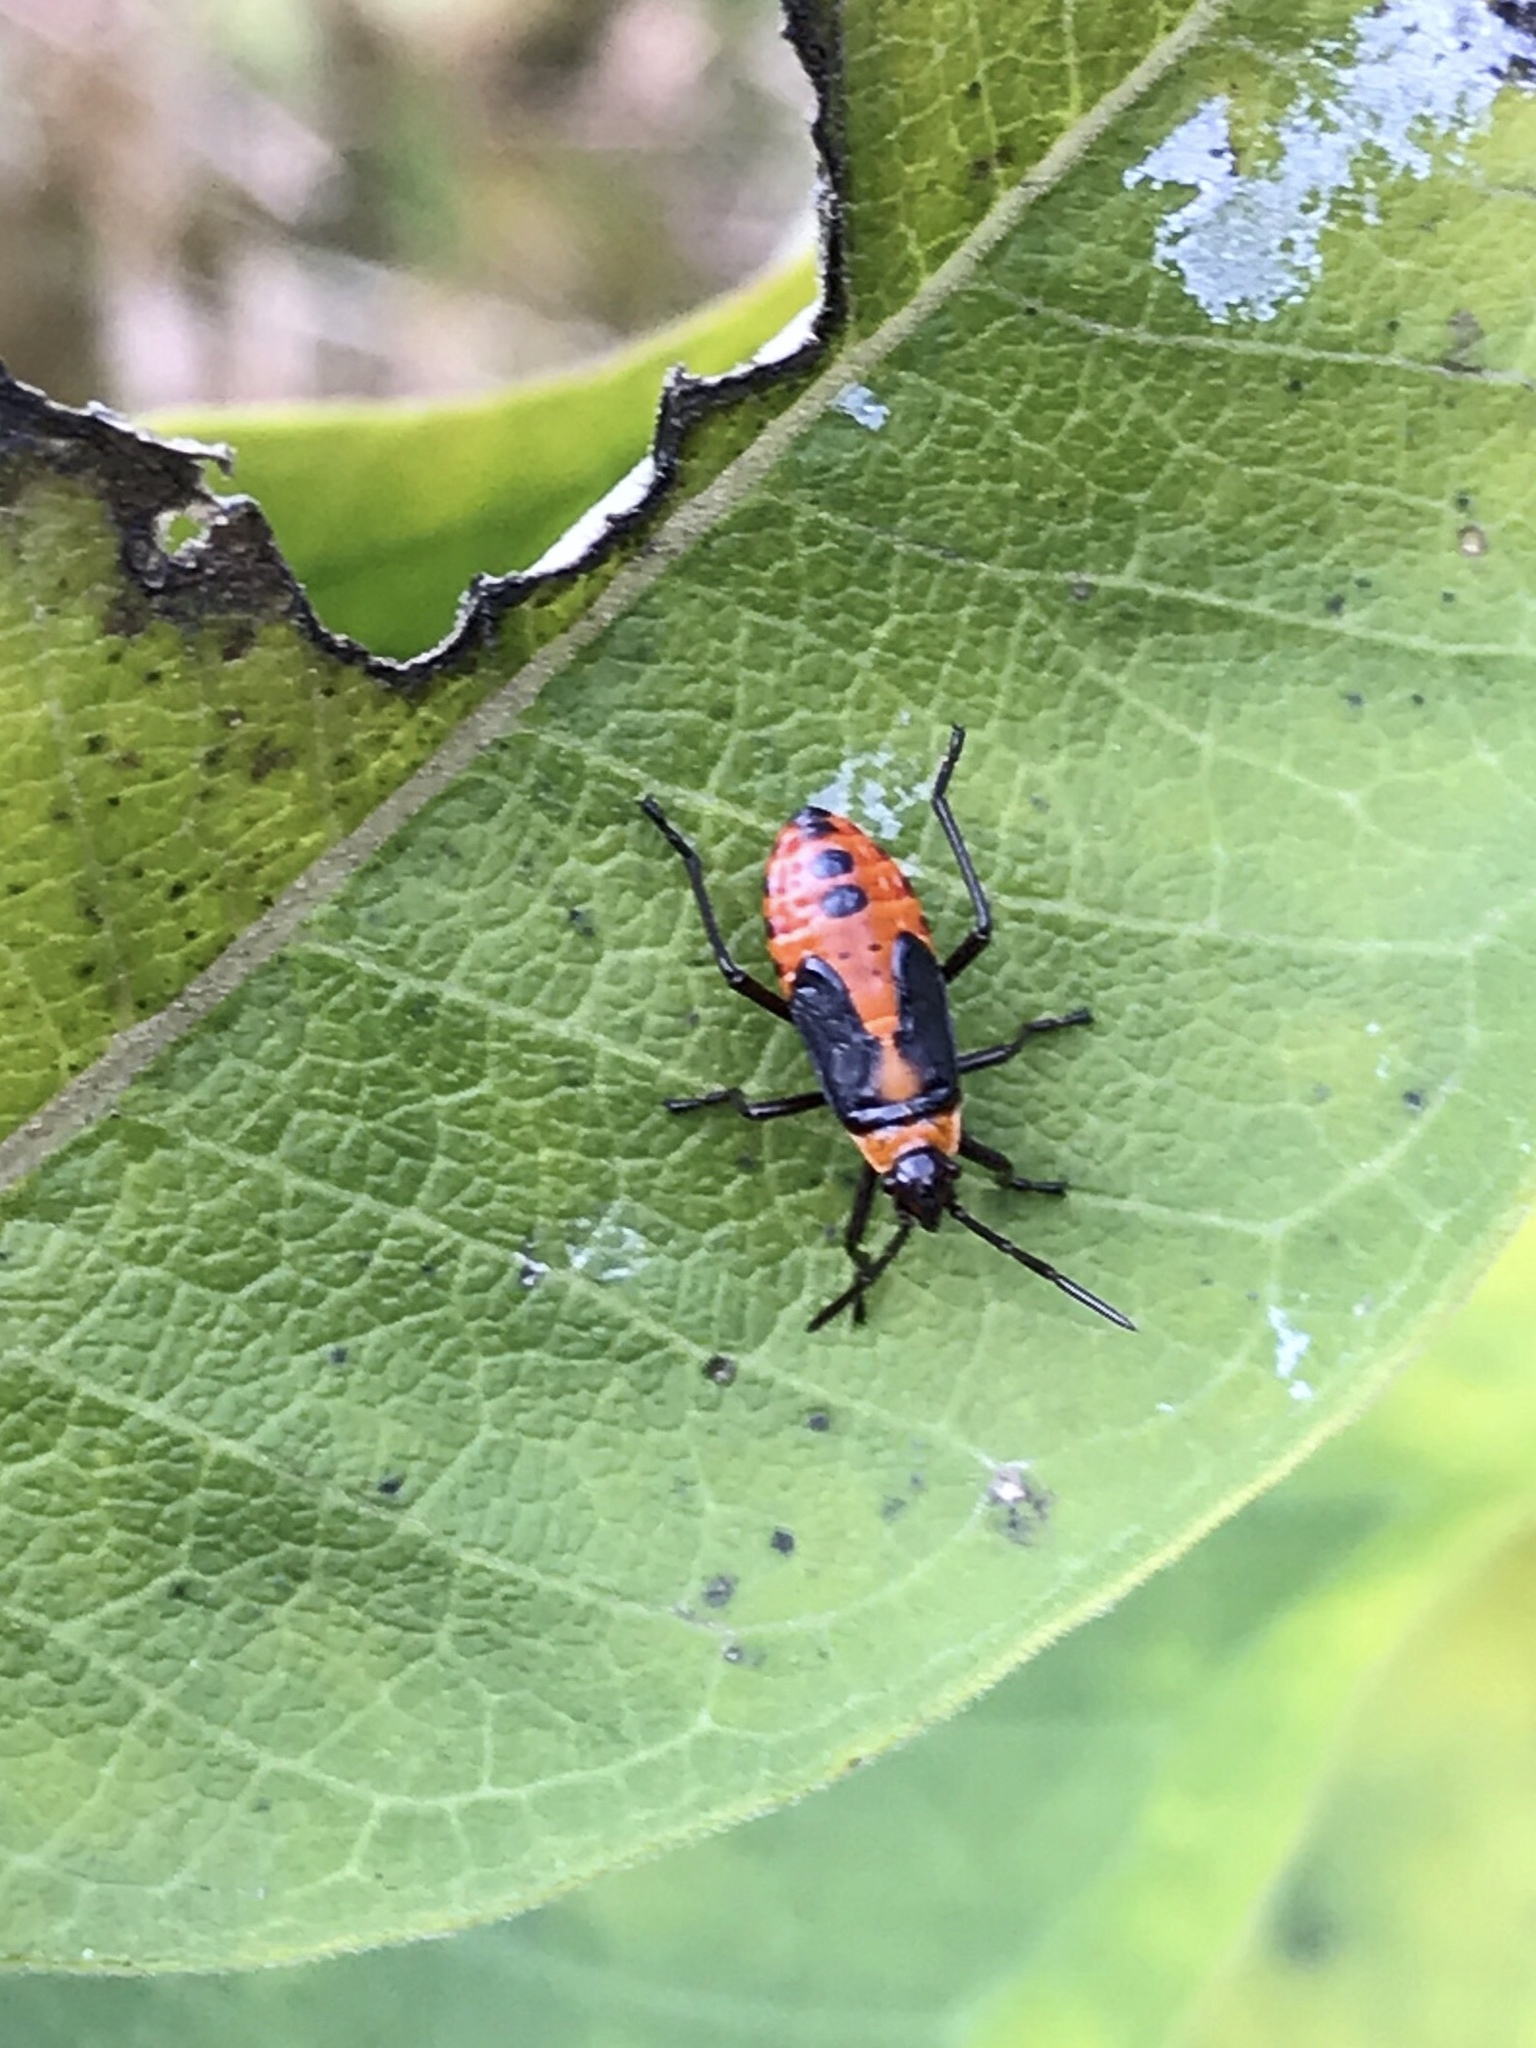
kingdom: Animalia
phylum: Arthropoda
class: Insecta
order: Hemiptera
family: Lygaeidae
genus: Oncopeltus
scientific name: Oncopeltus fasciatus
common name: Large milkweed bug
